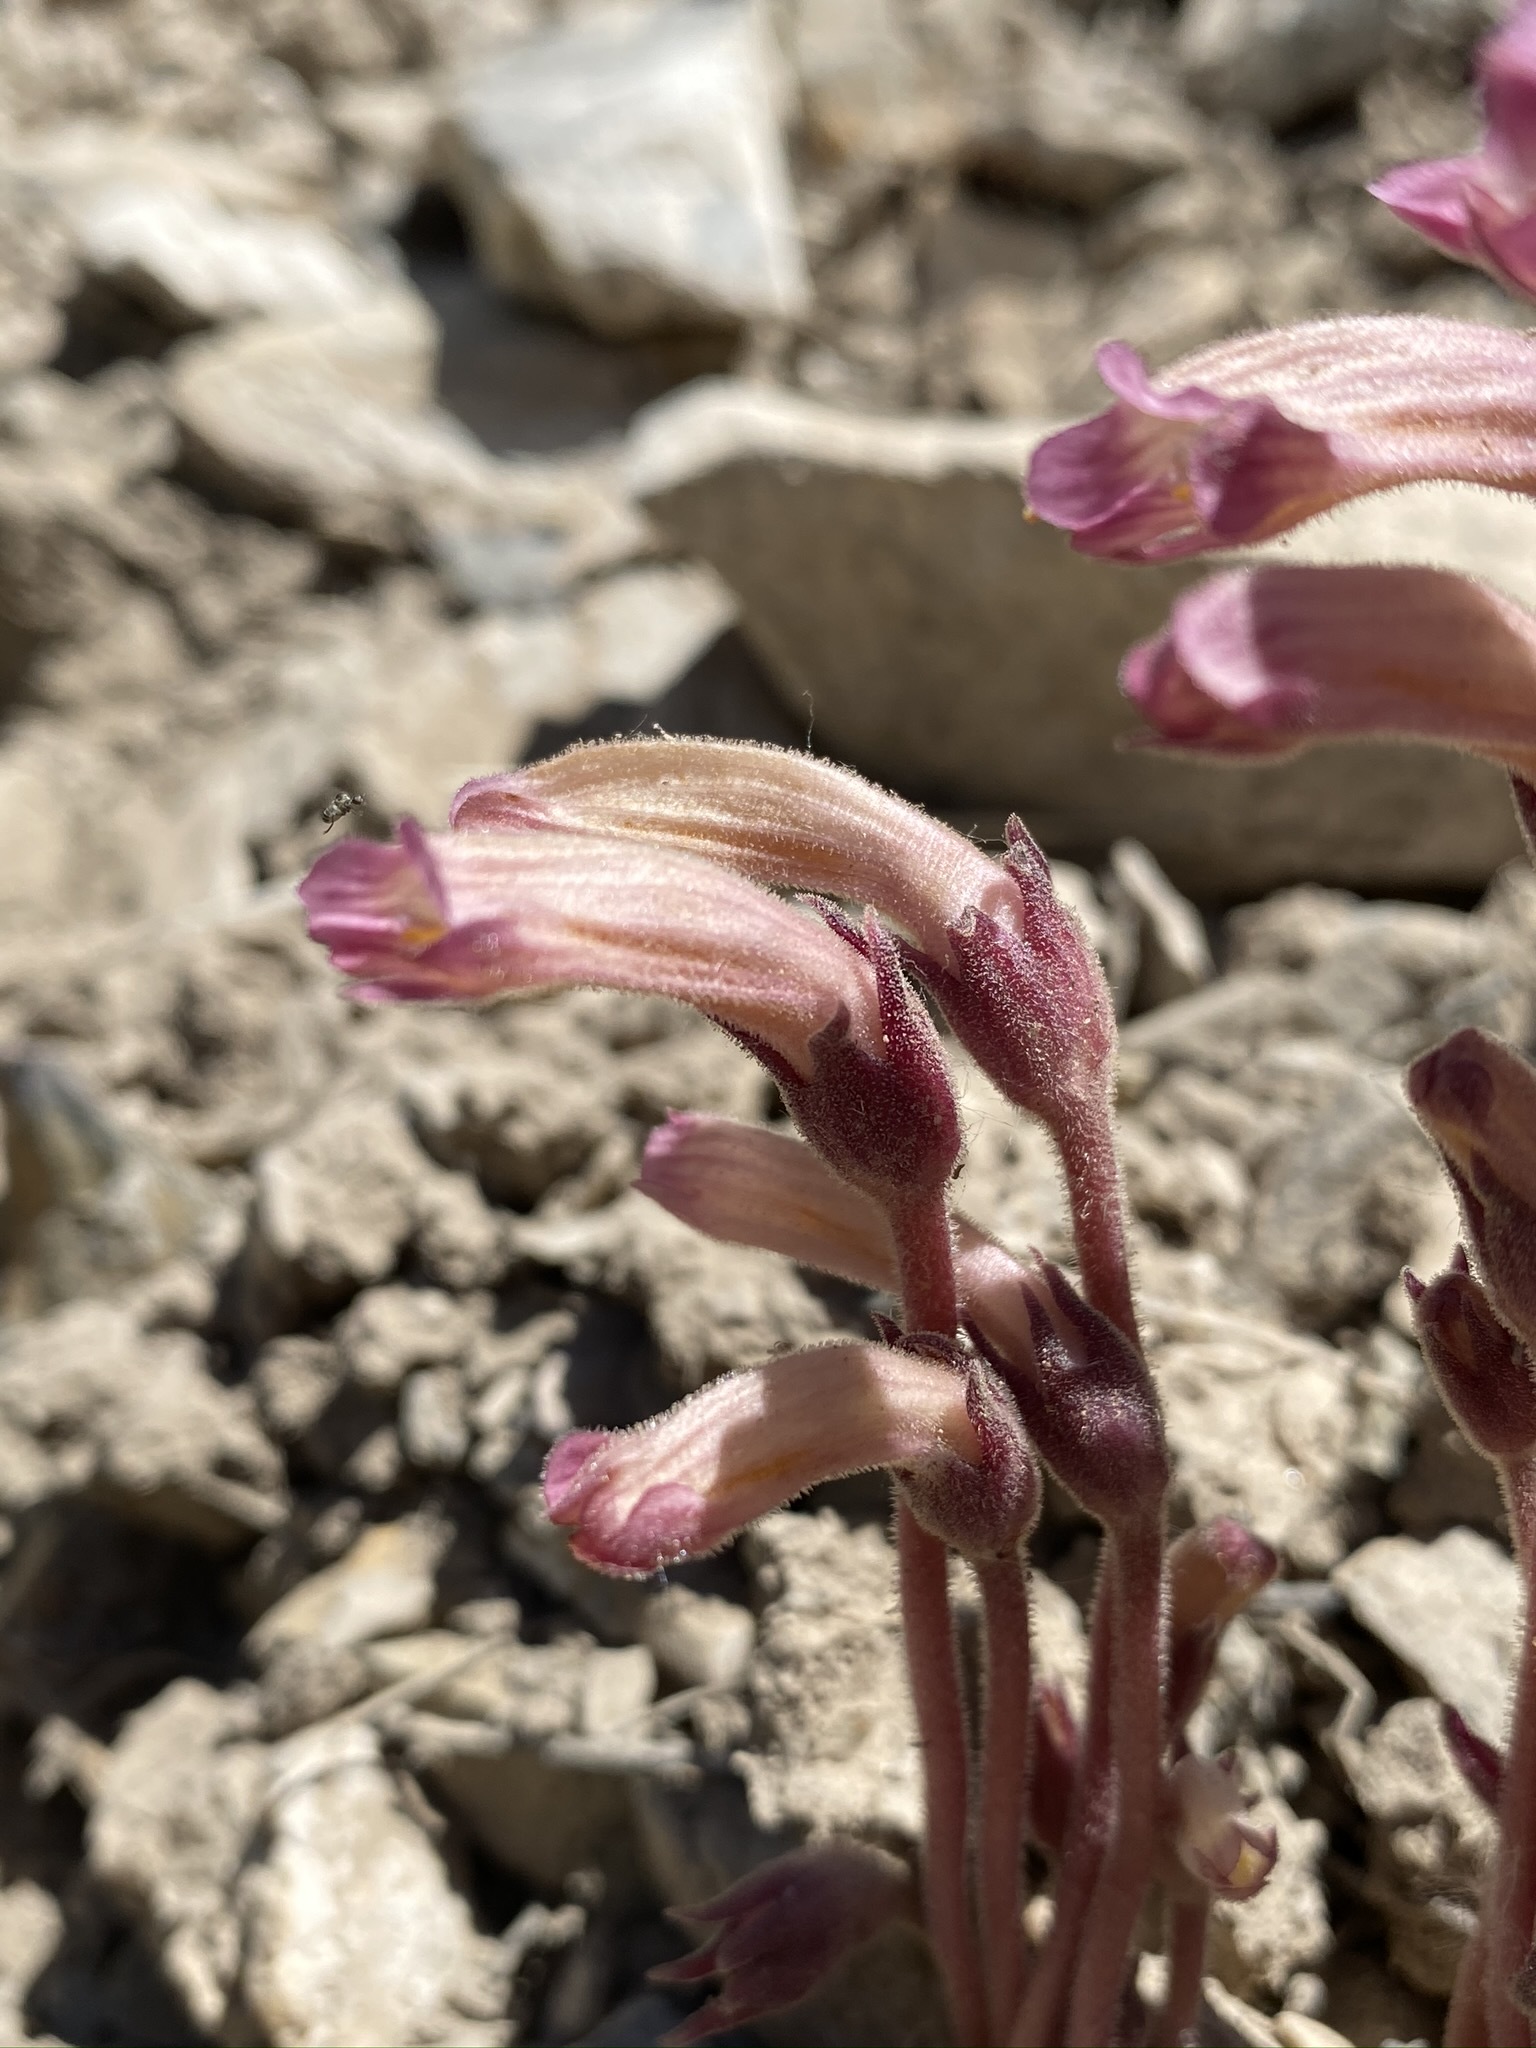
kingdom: Plantae
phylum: Tracheophyta
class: Magnoliopsida
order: Lamiales
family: Orobanchaceae
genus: Aphyllon
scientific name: Aphyllon fasciculatum
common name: Clustered broomrape
